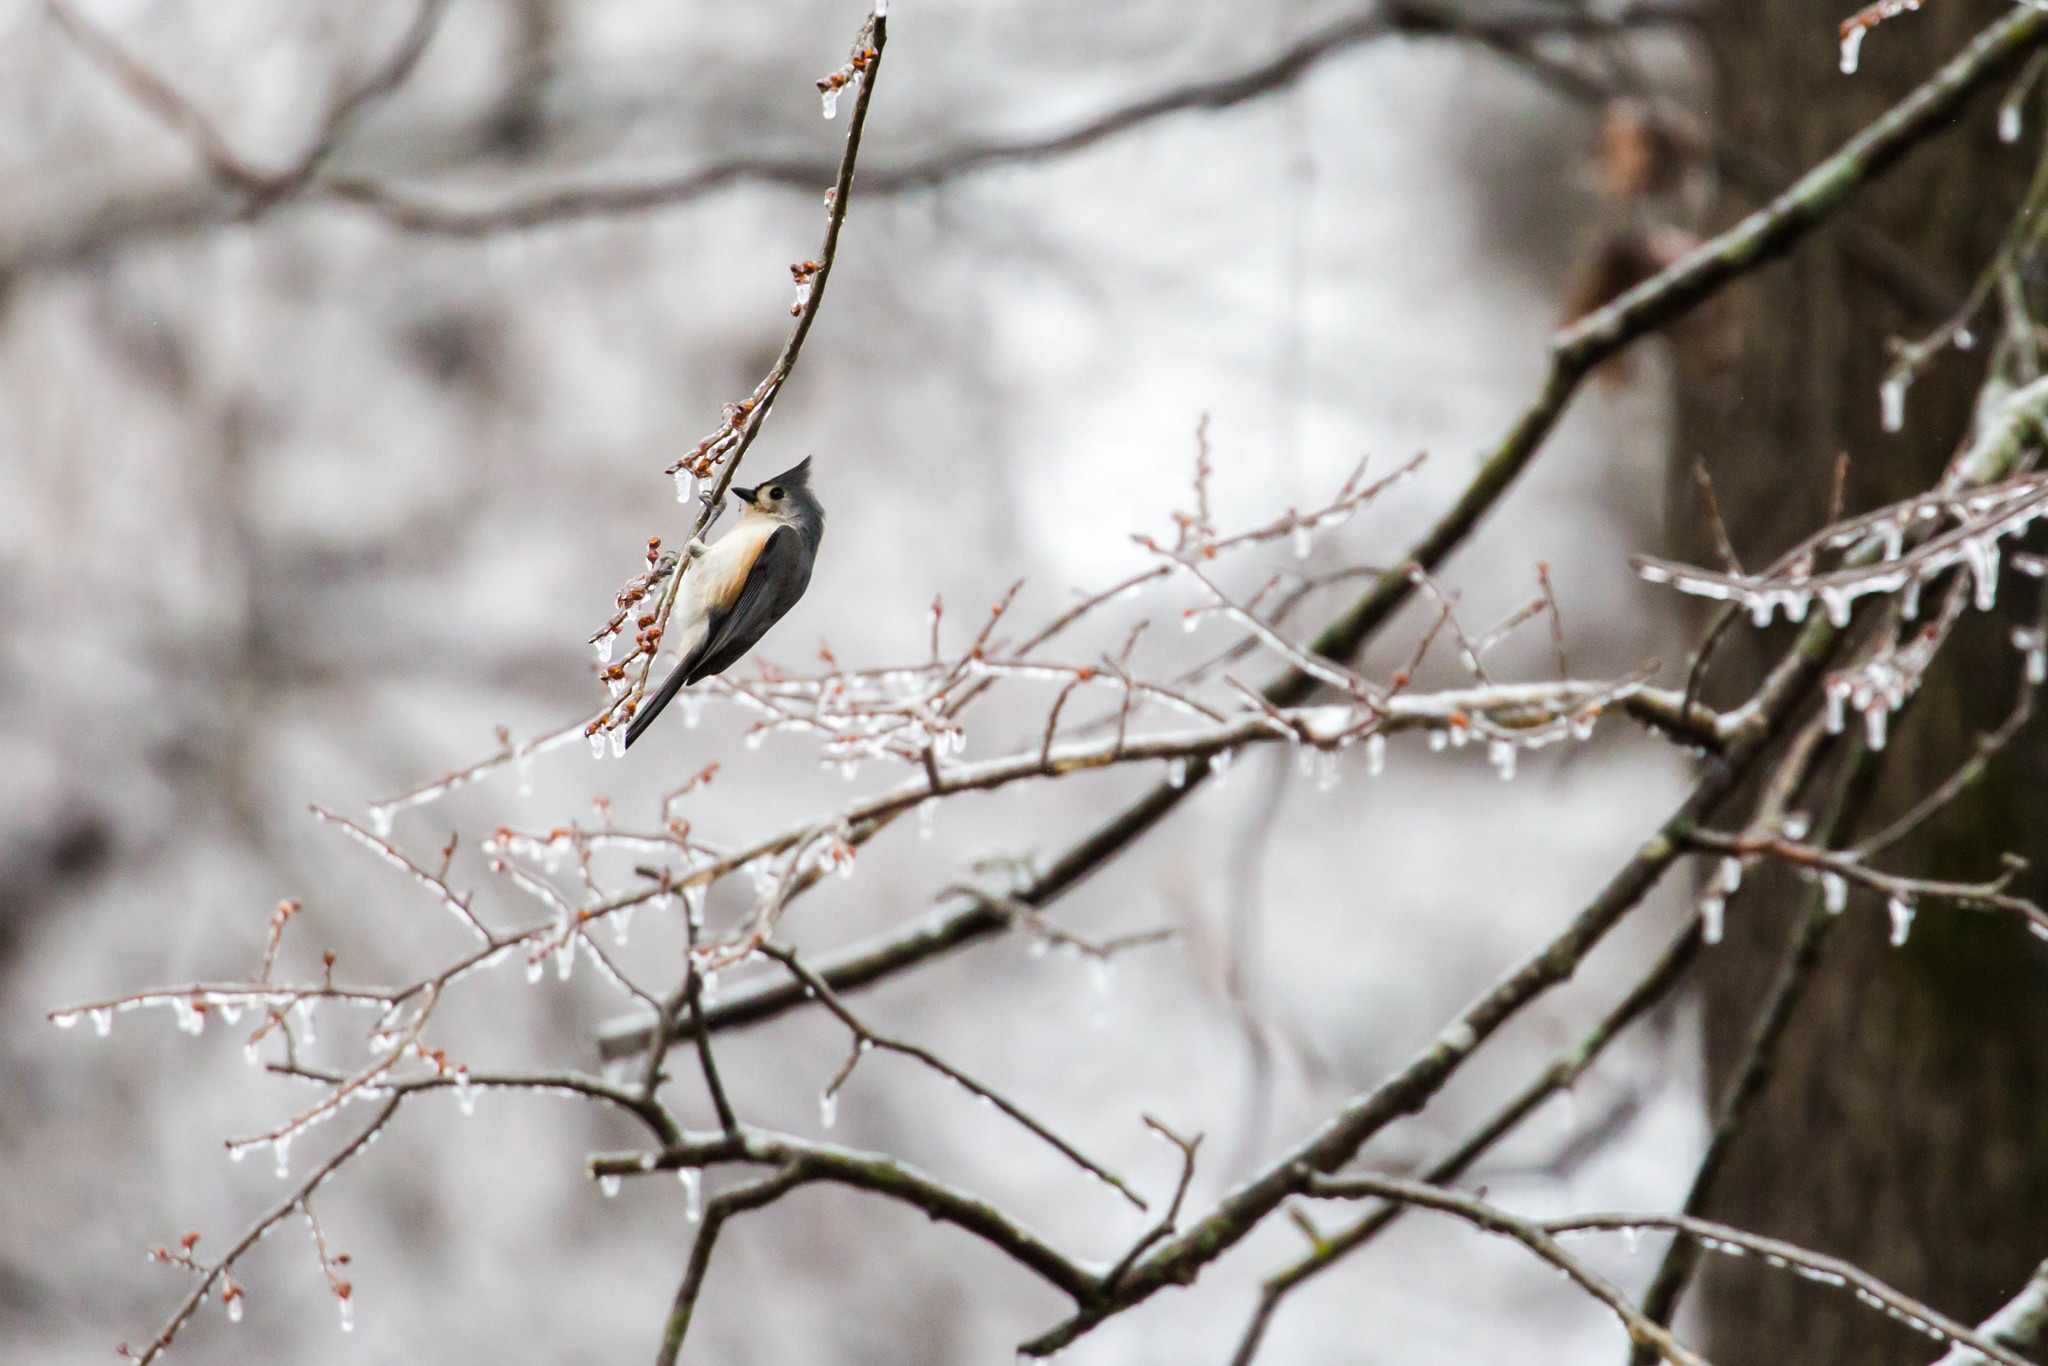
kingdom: Animalia
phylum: Chordata
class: Aves
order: Passeriformes
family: Paridae
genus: Baeolophus
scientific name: Baeolophus bicolor
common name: Tufted titmouse
